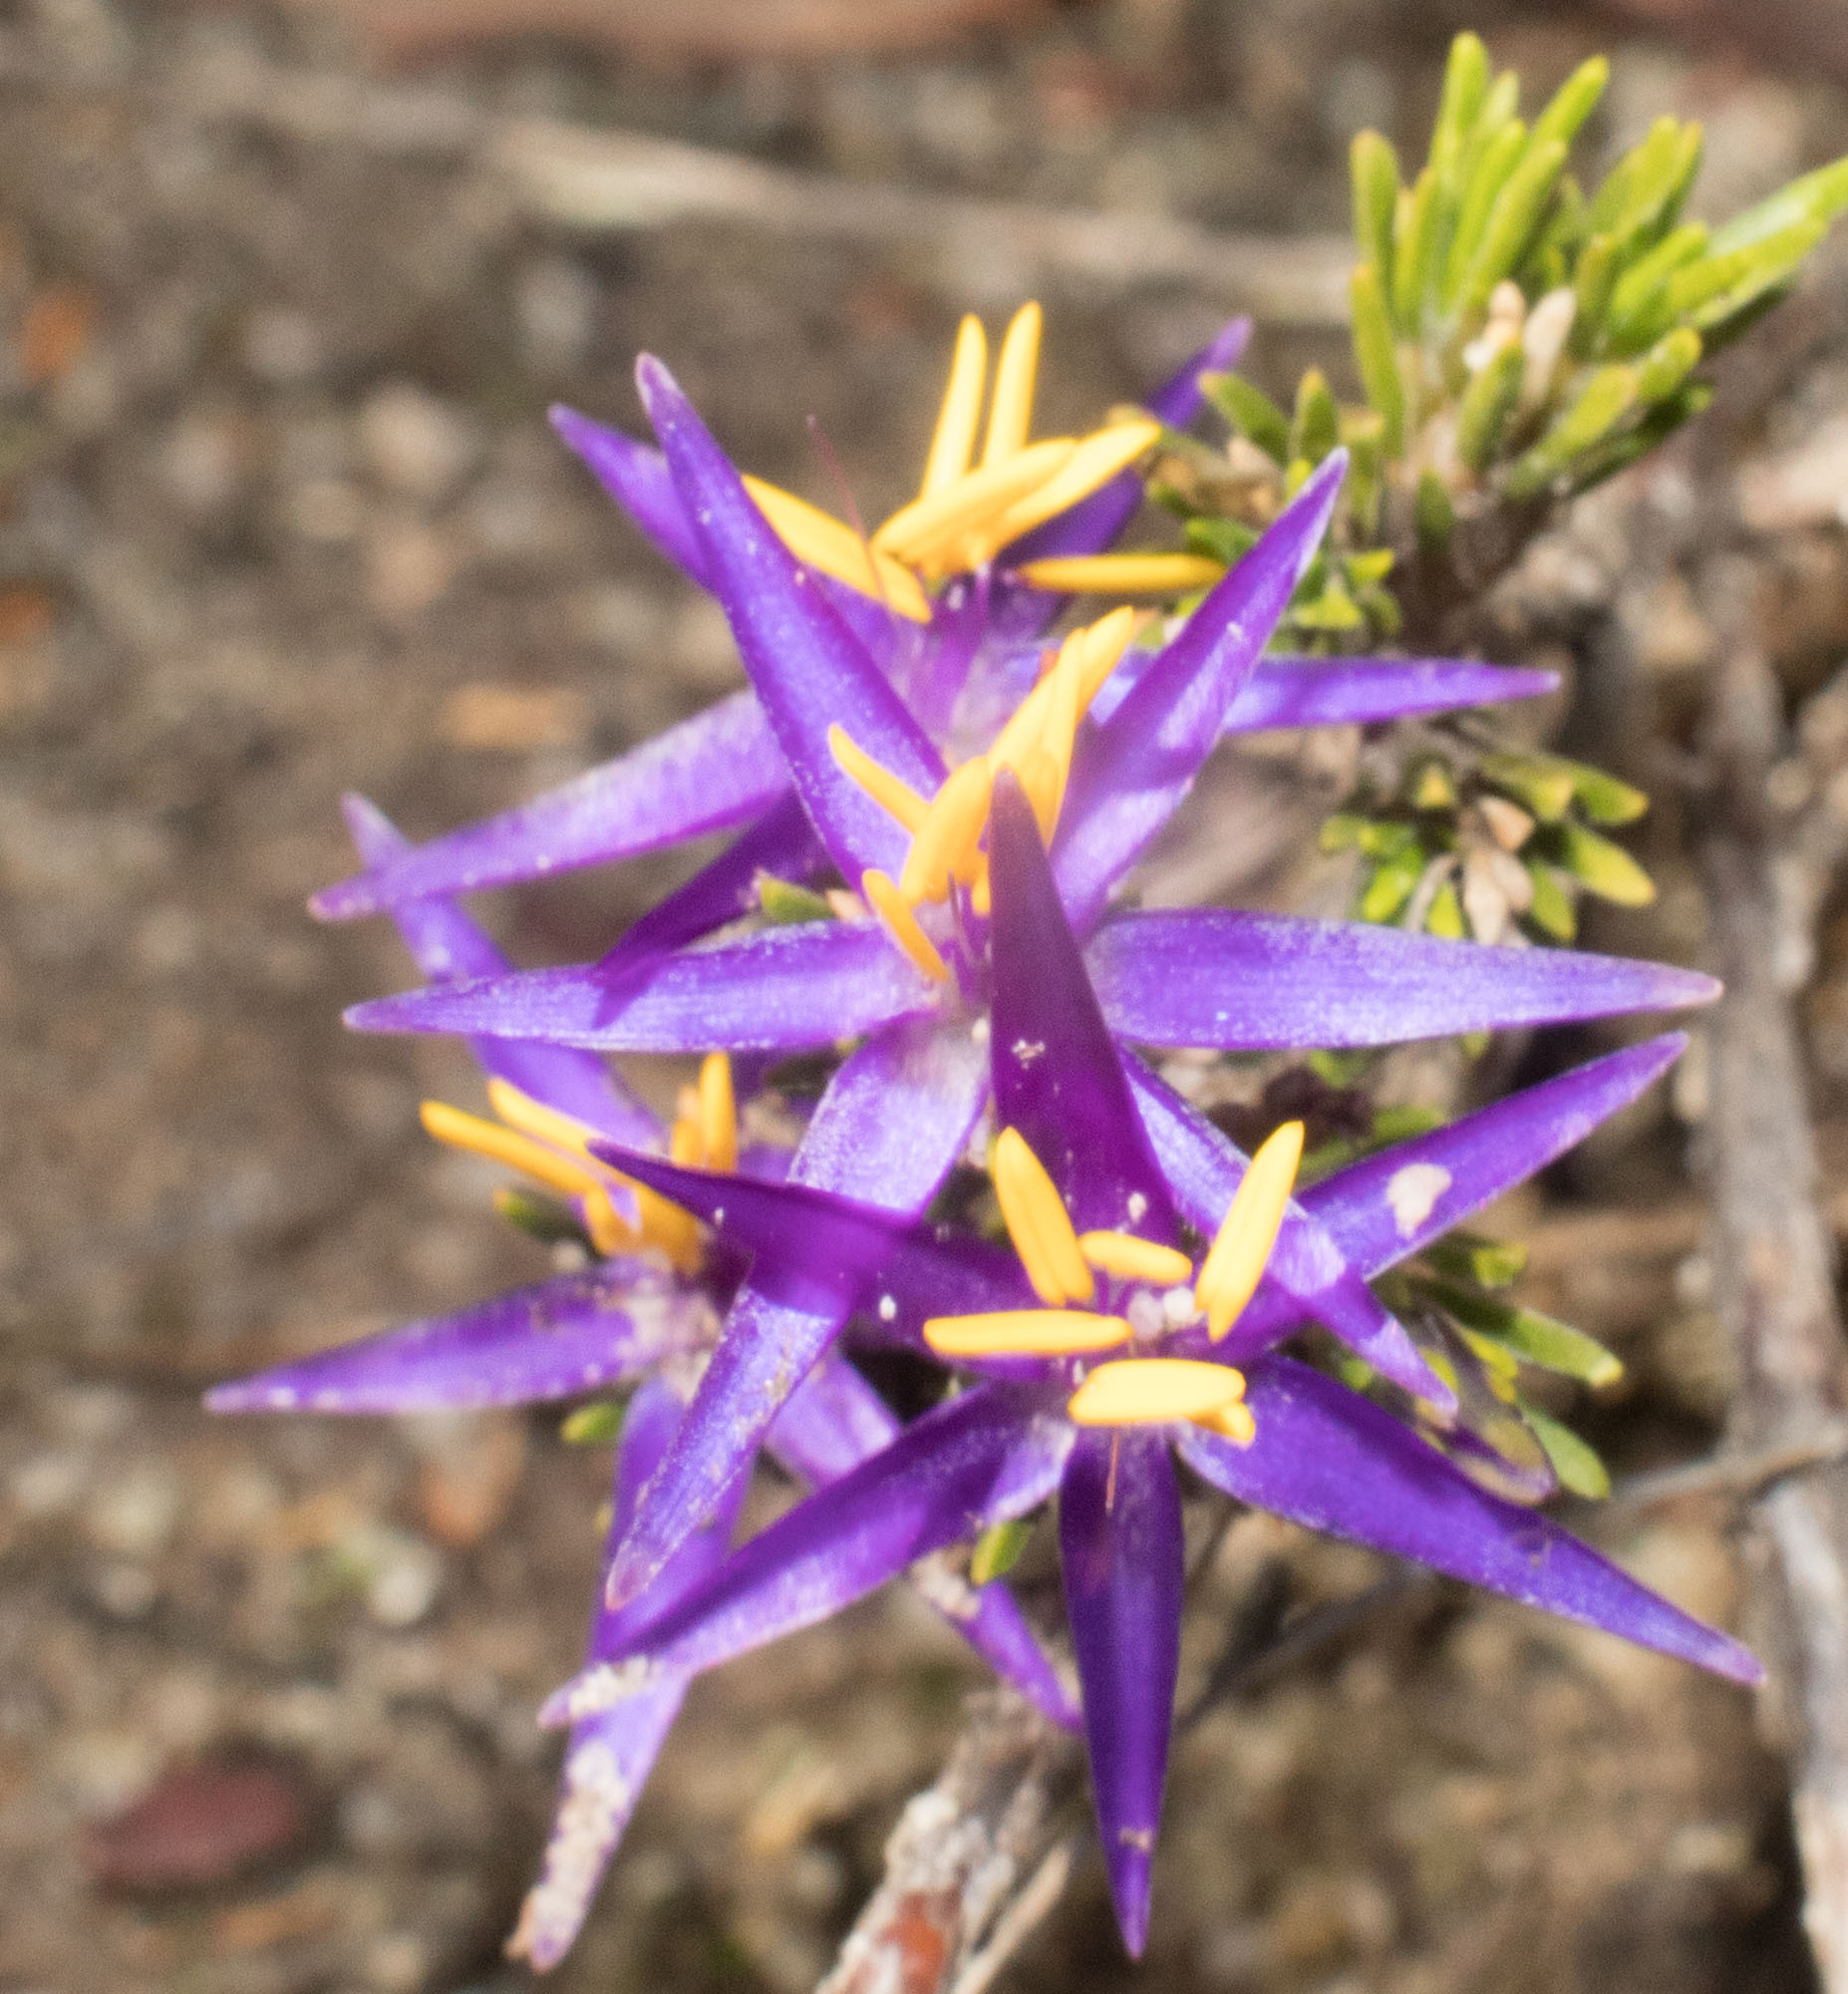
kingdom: Plantae
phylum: Tracheophyta
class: Liliopsida
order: Arecales
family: Dasypogonaceae
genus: Calectasia
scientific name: Calectasia obtusa
